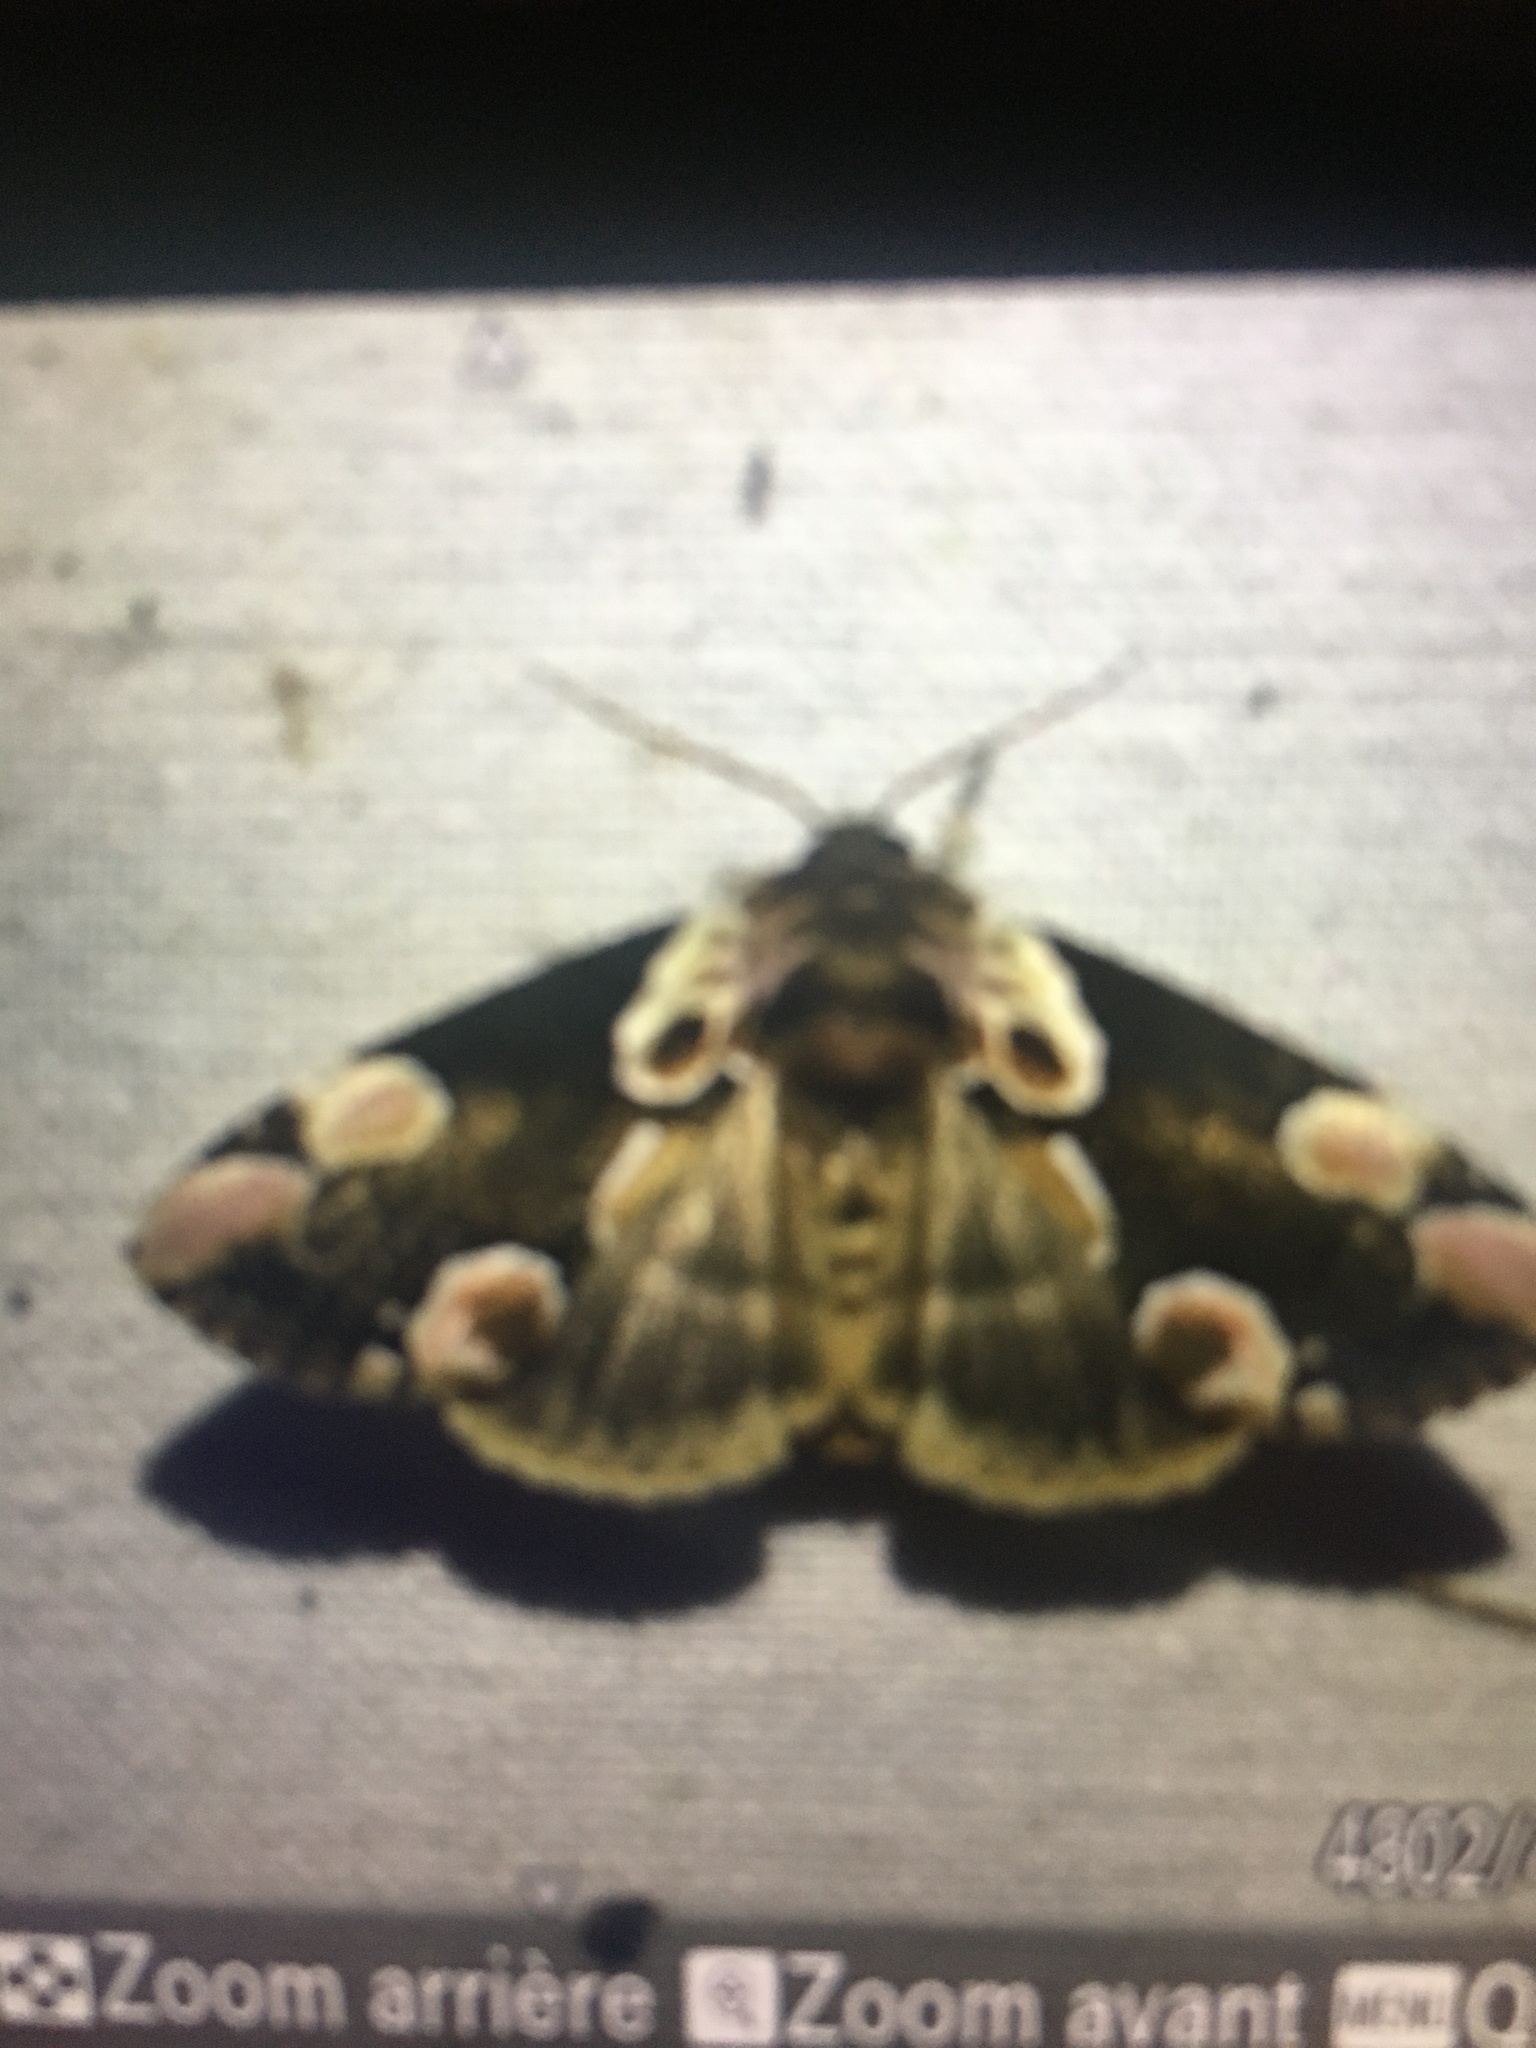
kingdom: Animalia
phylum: Arthropoda
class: Insecta
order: Lepidoptera
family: Drepanidae
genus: Thyatira
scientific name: Thyatira batis
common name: Peach blossom
